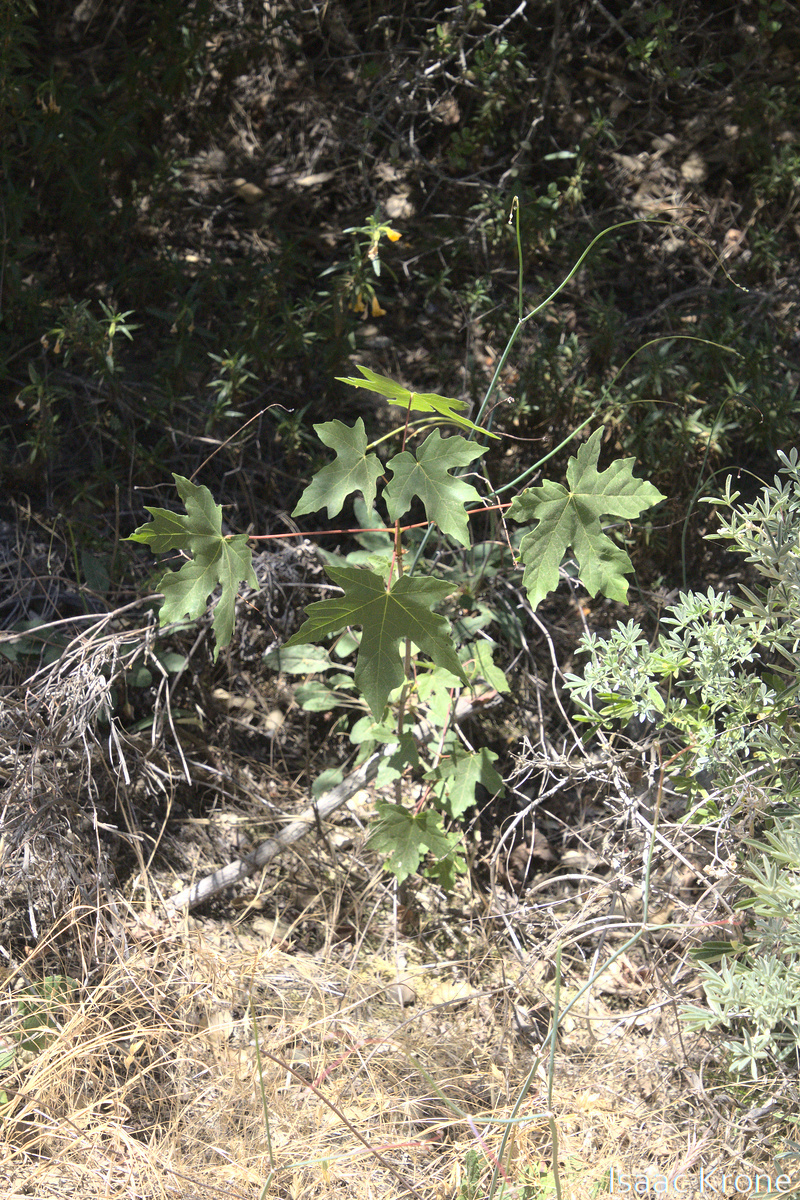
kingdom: Plantae
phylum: Tracheophyta
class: Magnoliopsida
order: Sapindales
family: Sapindaceae
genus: Acer
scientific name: Acer macrophyllum
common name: Oregon maple
